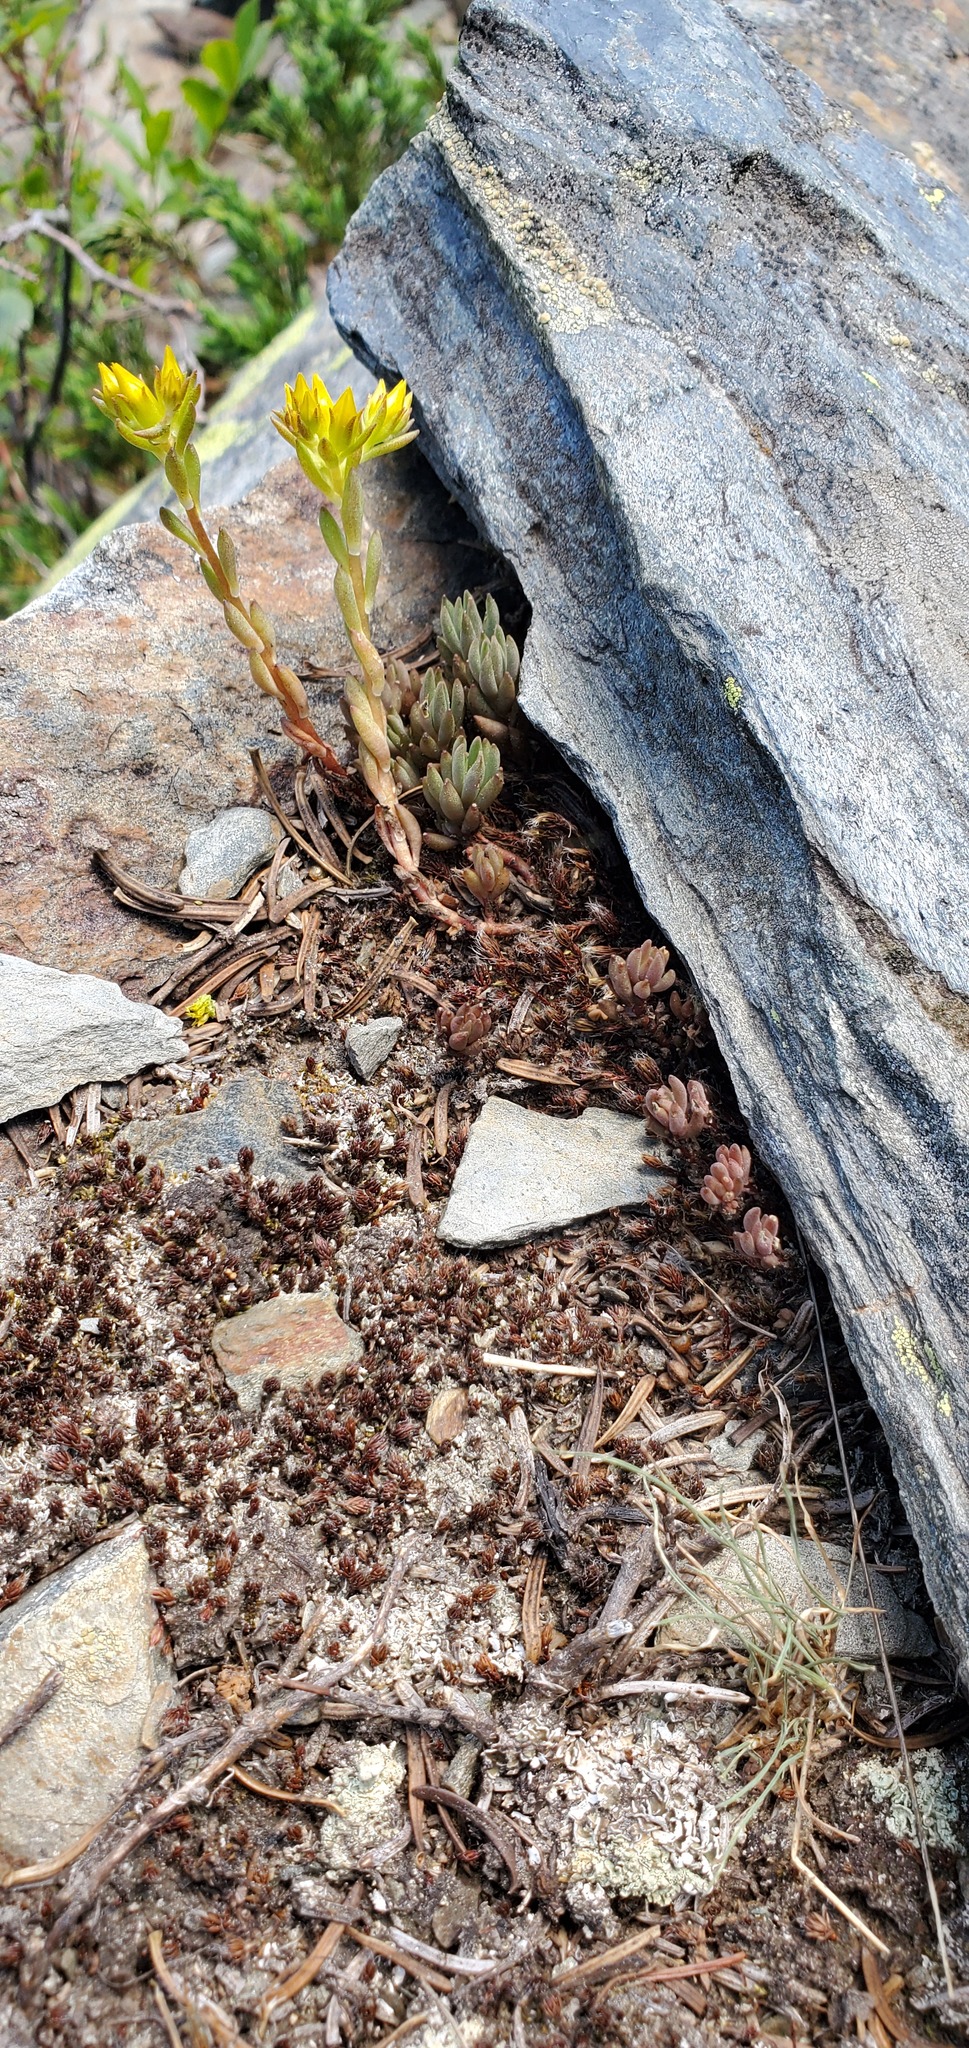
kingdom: Plantae
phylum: Tracheophyta
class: Magnoliopsida
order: Saxifragales
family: Crassulaceae
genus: Sedum
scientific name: Sedum lanceolatum
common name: Common stonecrop
